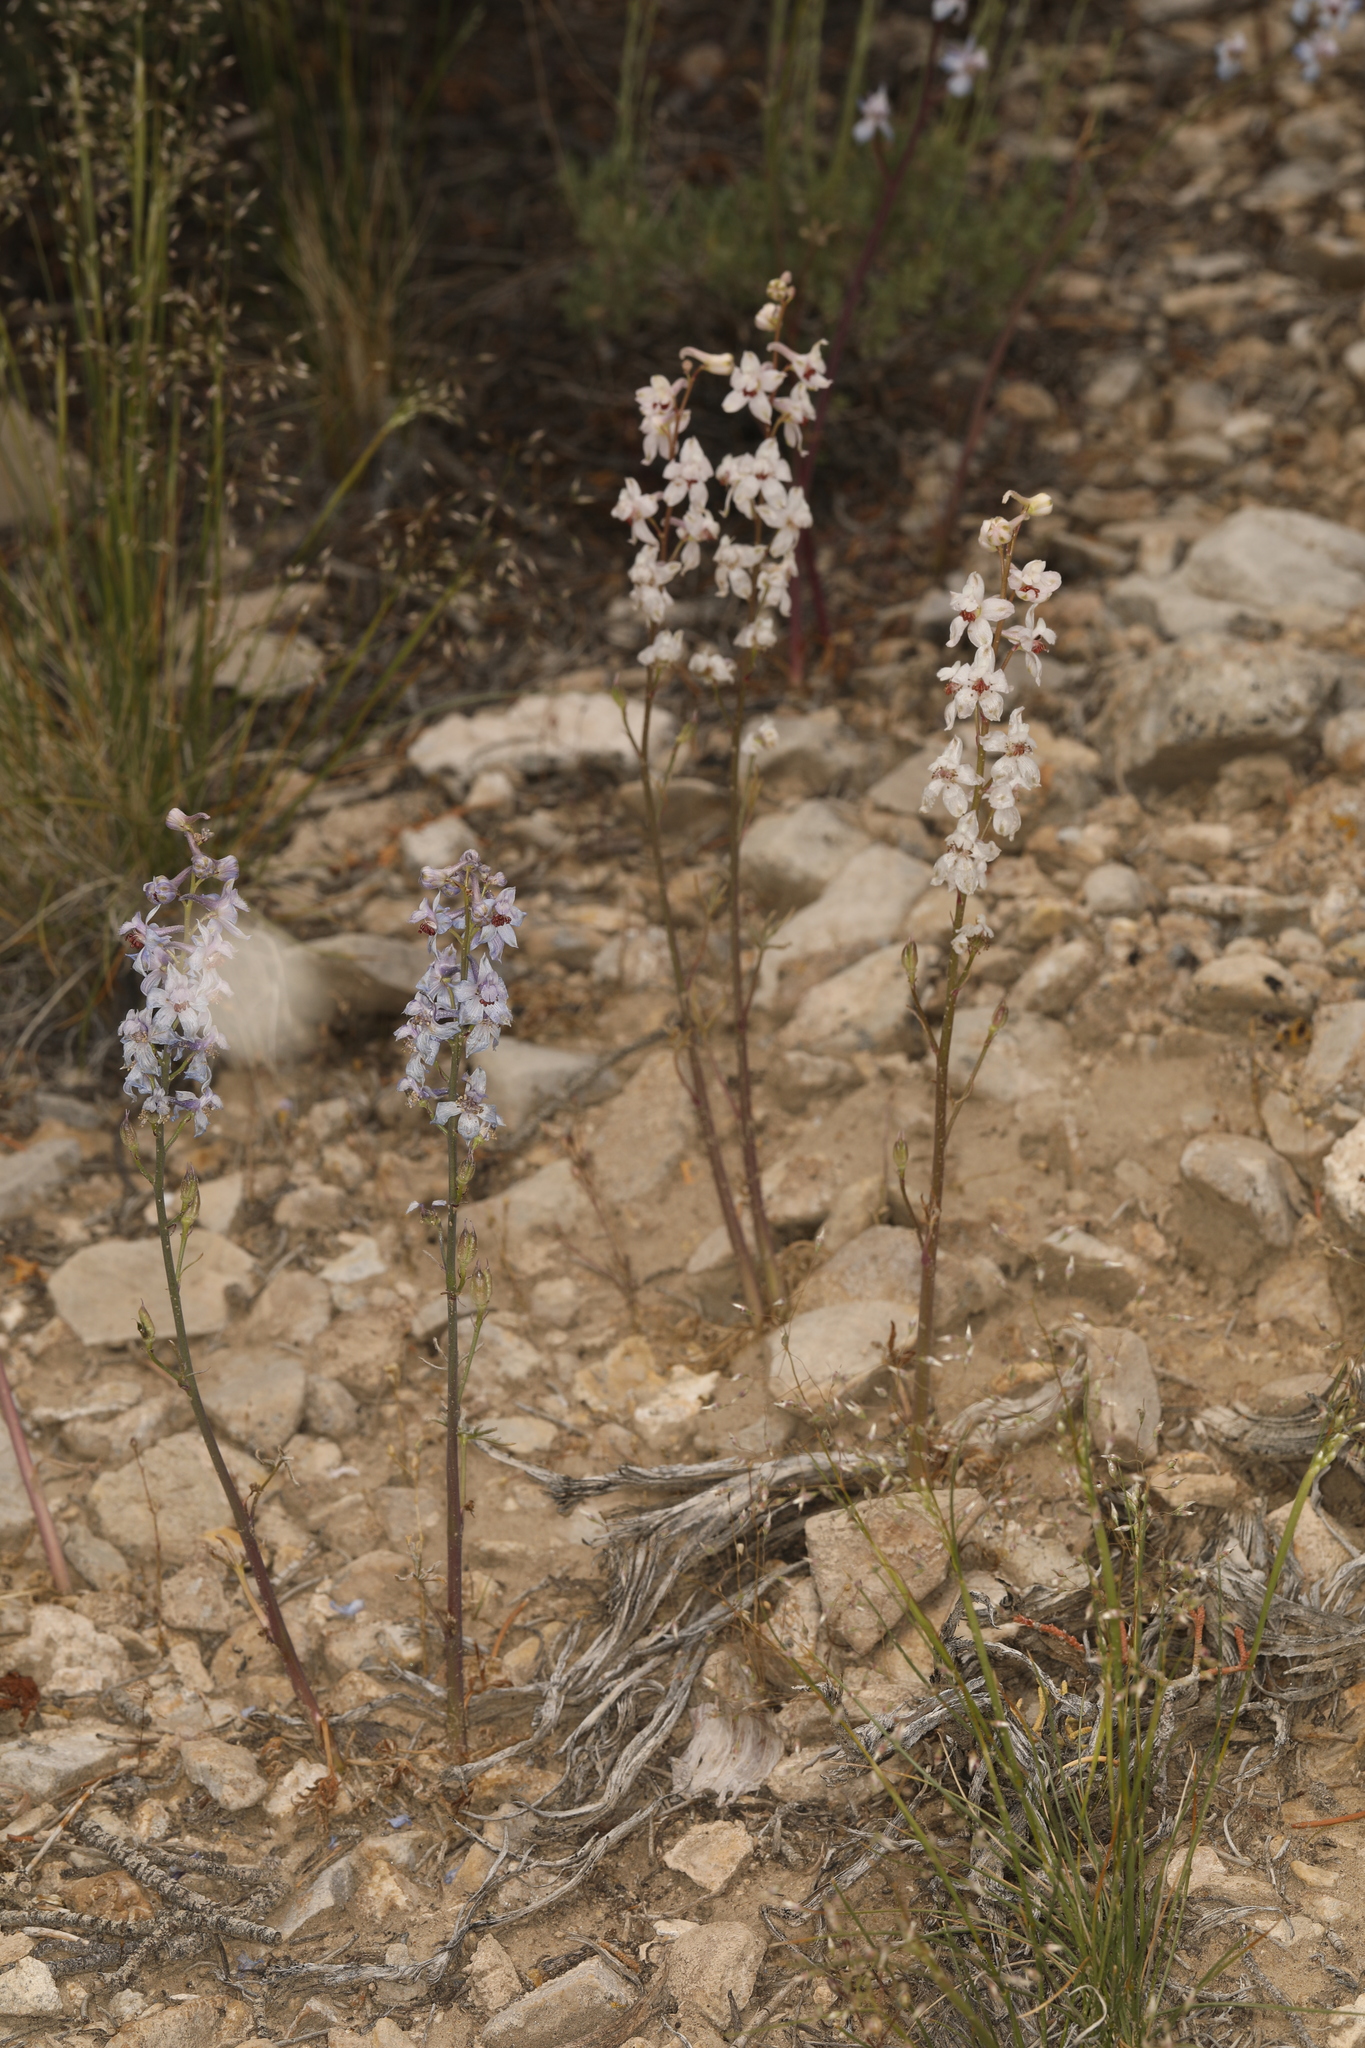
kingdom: Plantae
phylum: Tracheophyta
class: Magnoliopsida
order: Ranunculales
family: Ranunculaceae
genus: Delphinium
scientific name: Delphinium parishii
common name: Apache larkspur
